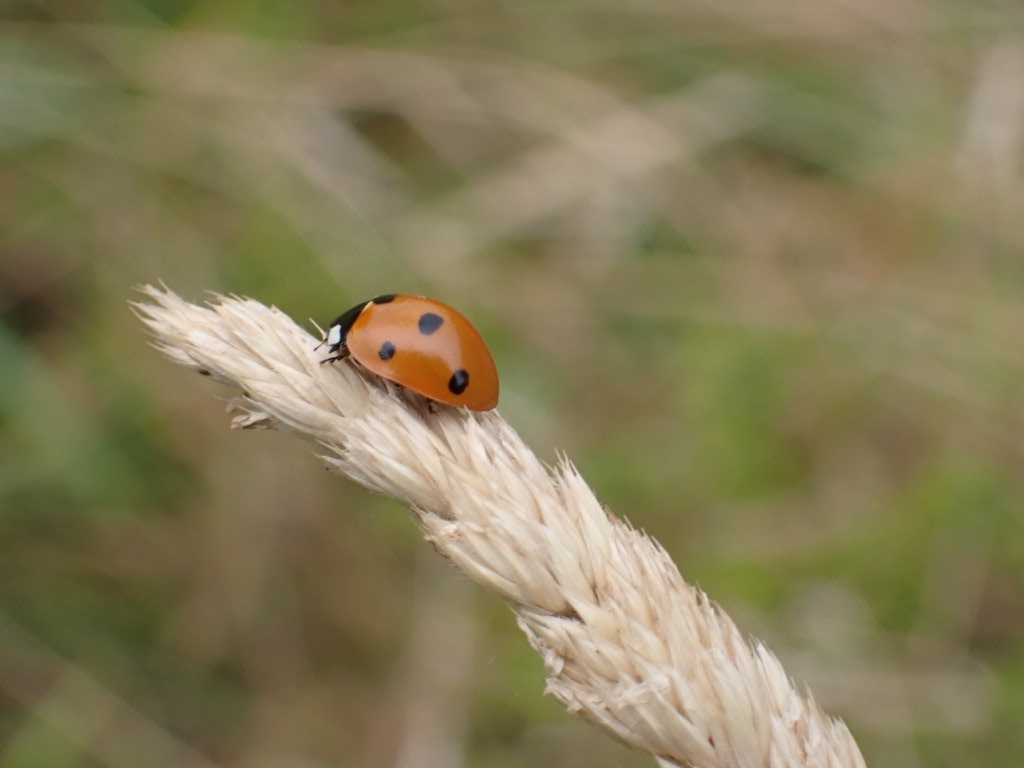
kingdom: Animalia
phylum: Arthropoda
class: Insecta
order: Coleoptera
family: Coccinellidae
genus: Coccinella
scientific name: Coccinella septempunctata
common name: Sevenspotted lady beetle
